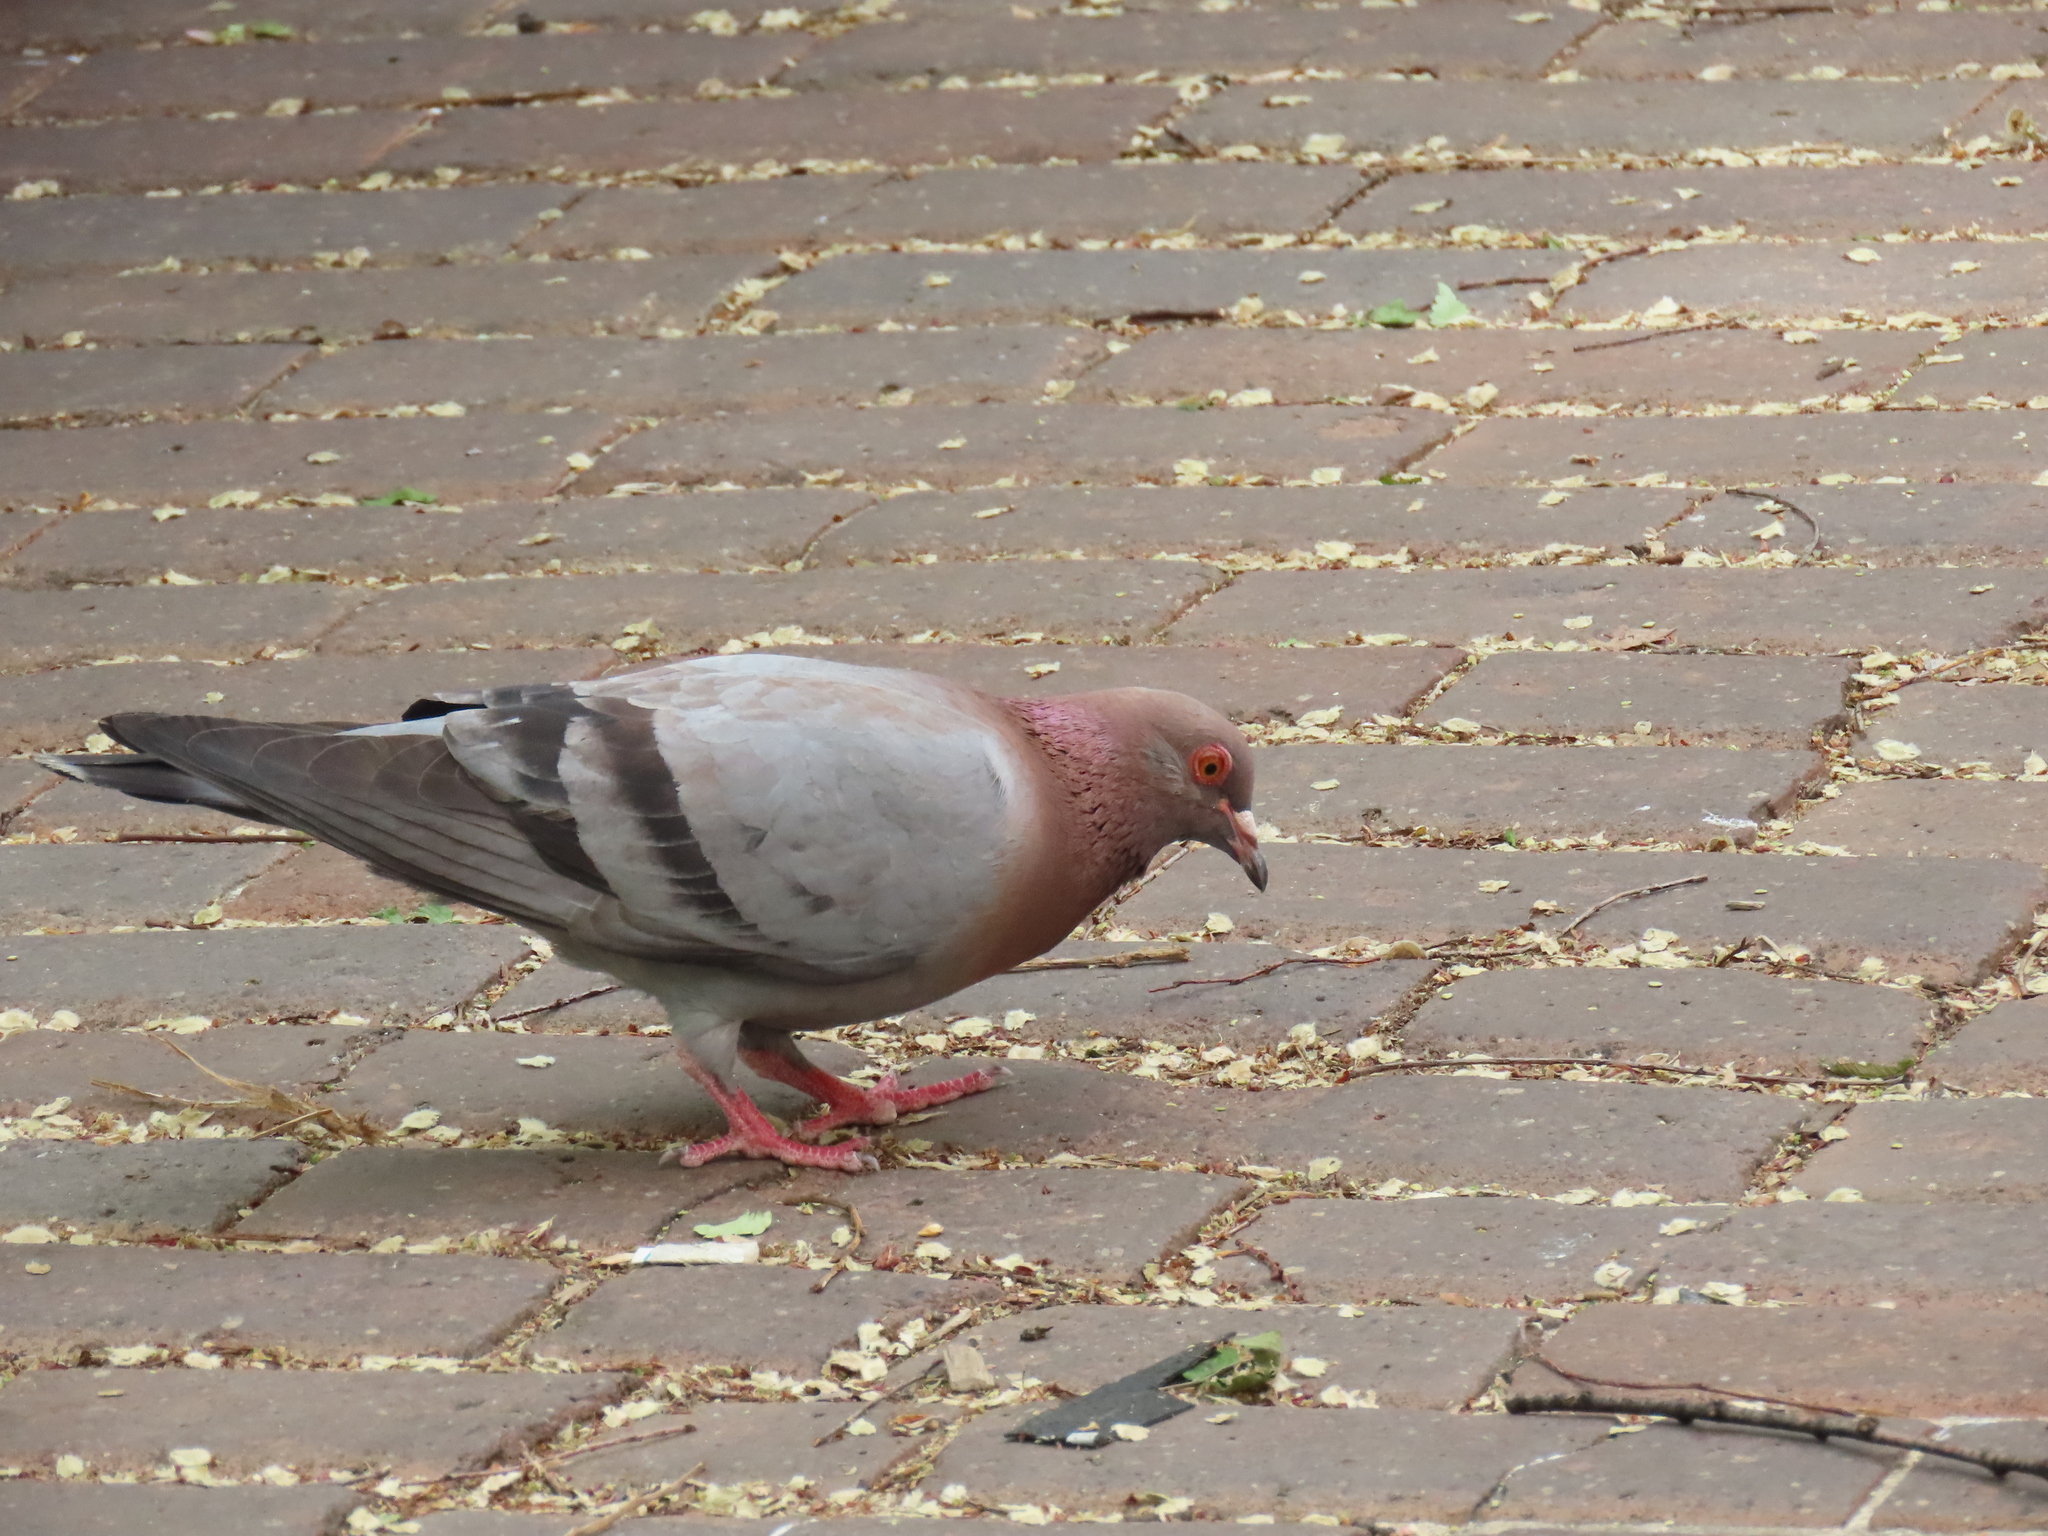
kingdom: Animalia
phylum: Chordata
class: Aves
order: Columbiformes
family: Columbidae
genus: Columba
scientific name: Columba livia
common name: Rock pigeon
